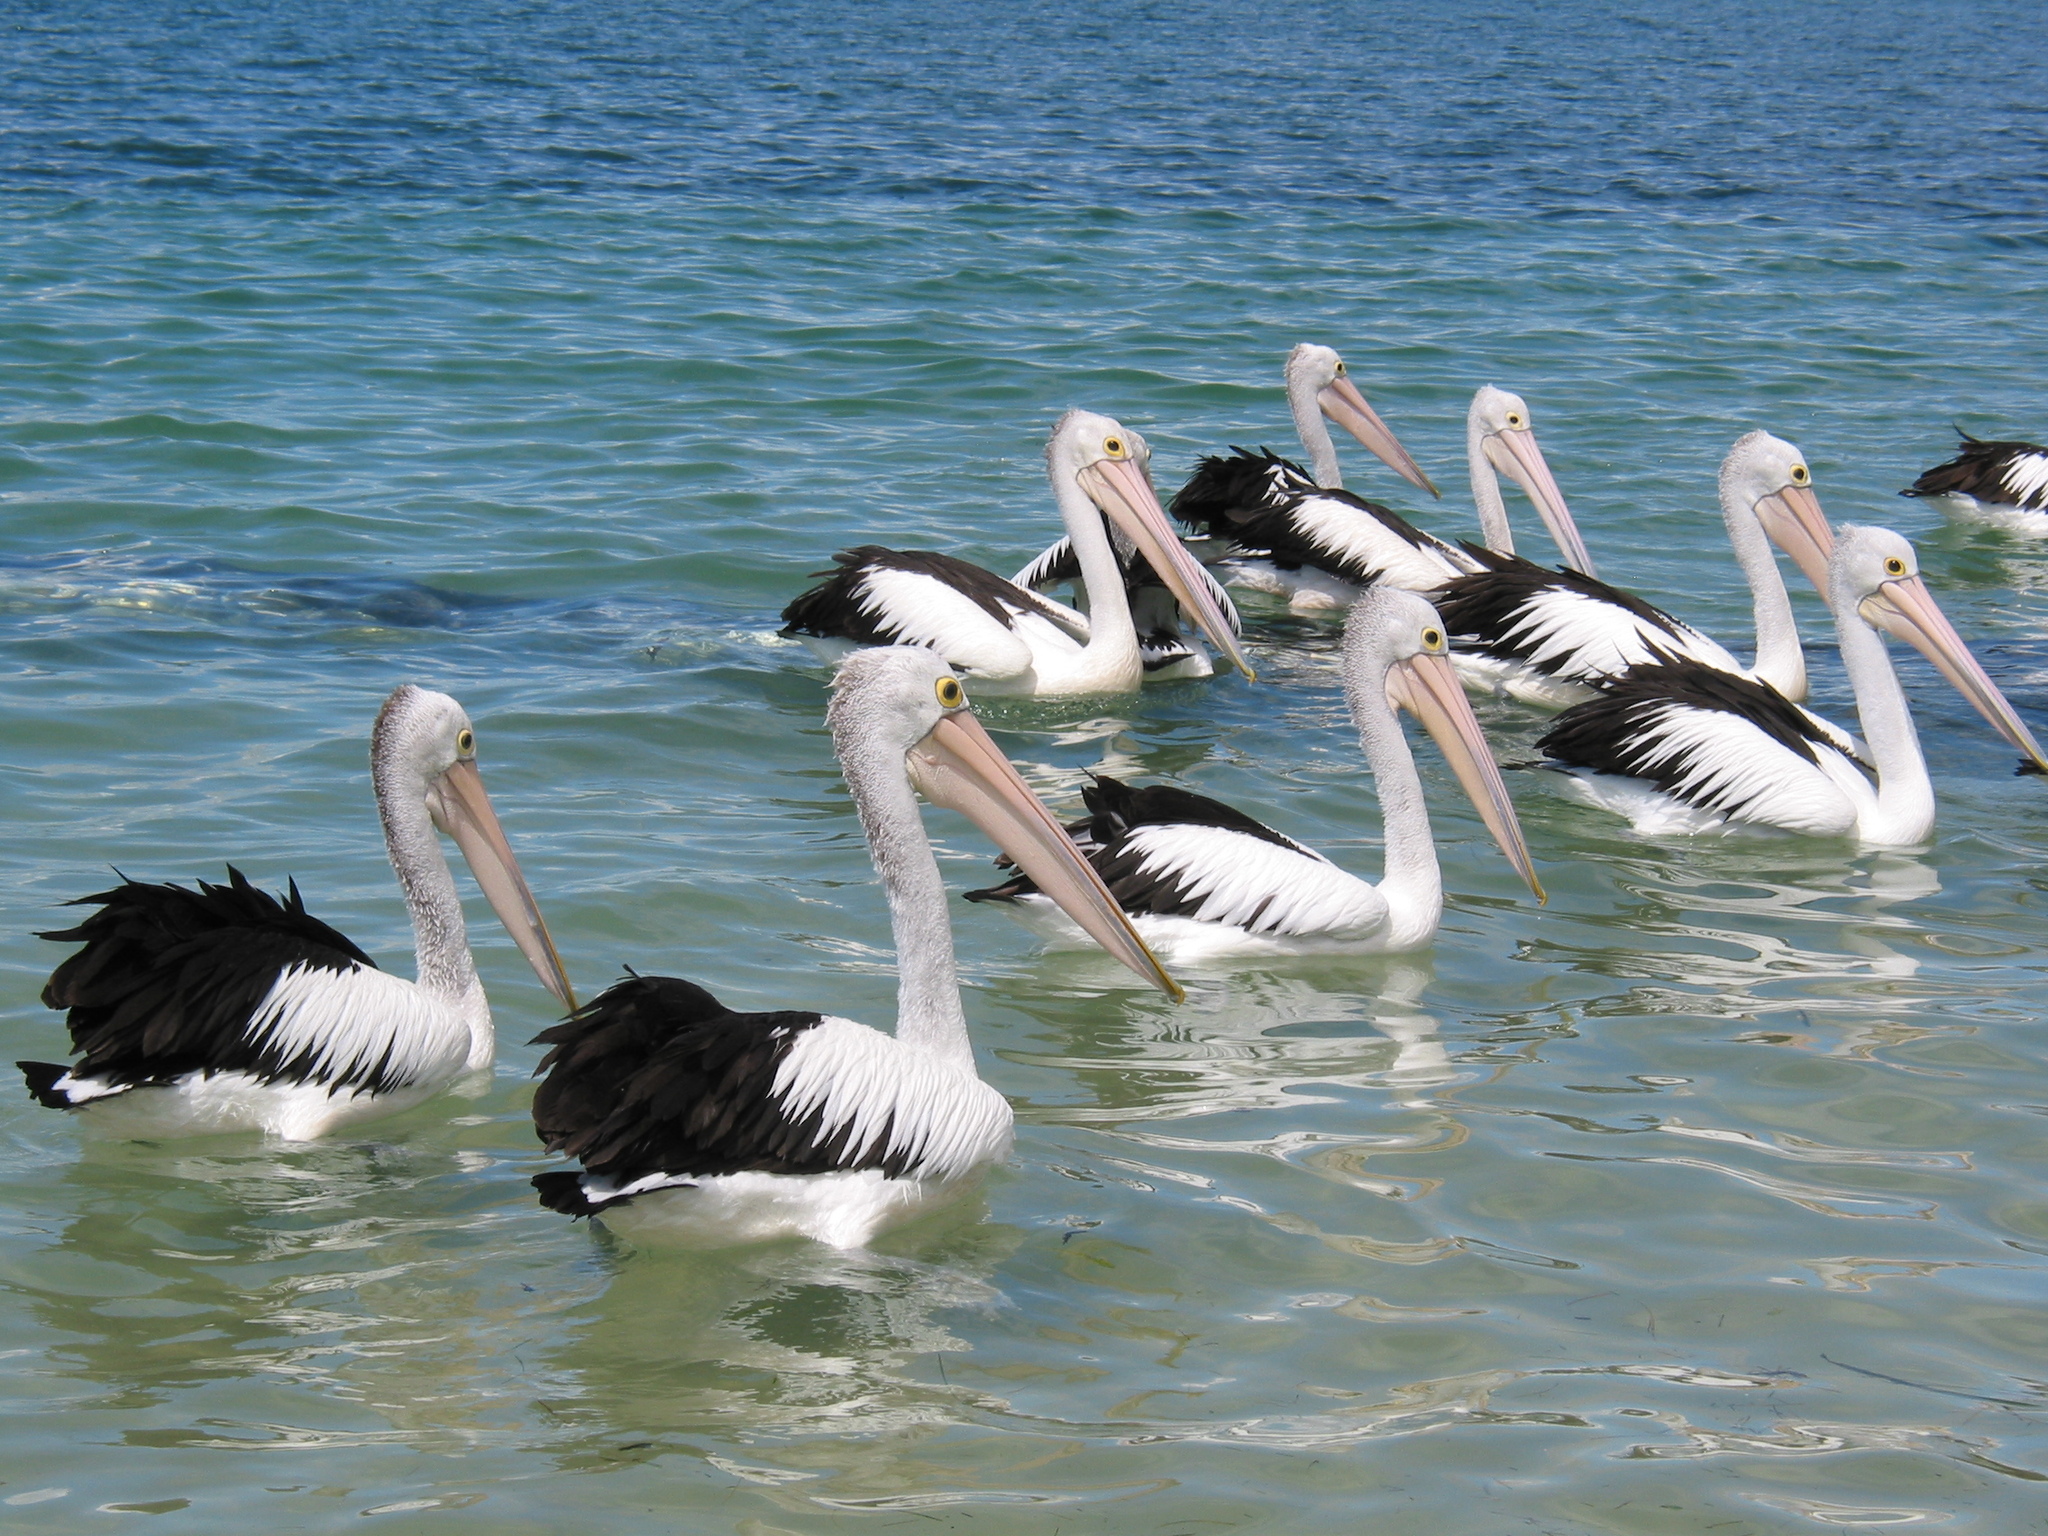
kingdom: Animalia
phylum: Chordata
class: Aves
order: Pelecaniformes
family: Pelecanidae
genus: Pelecanus
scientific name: Pelecanus conspicillatus
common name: Australian pelican
